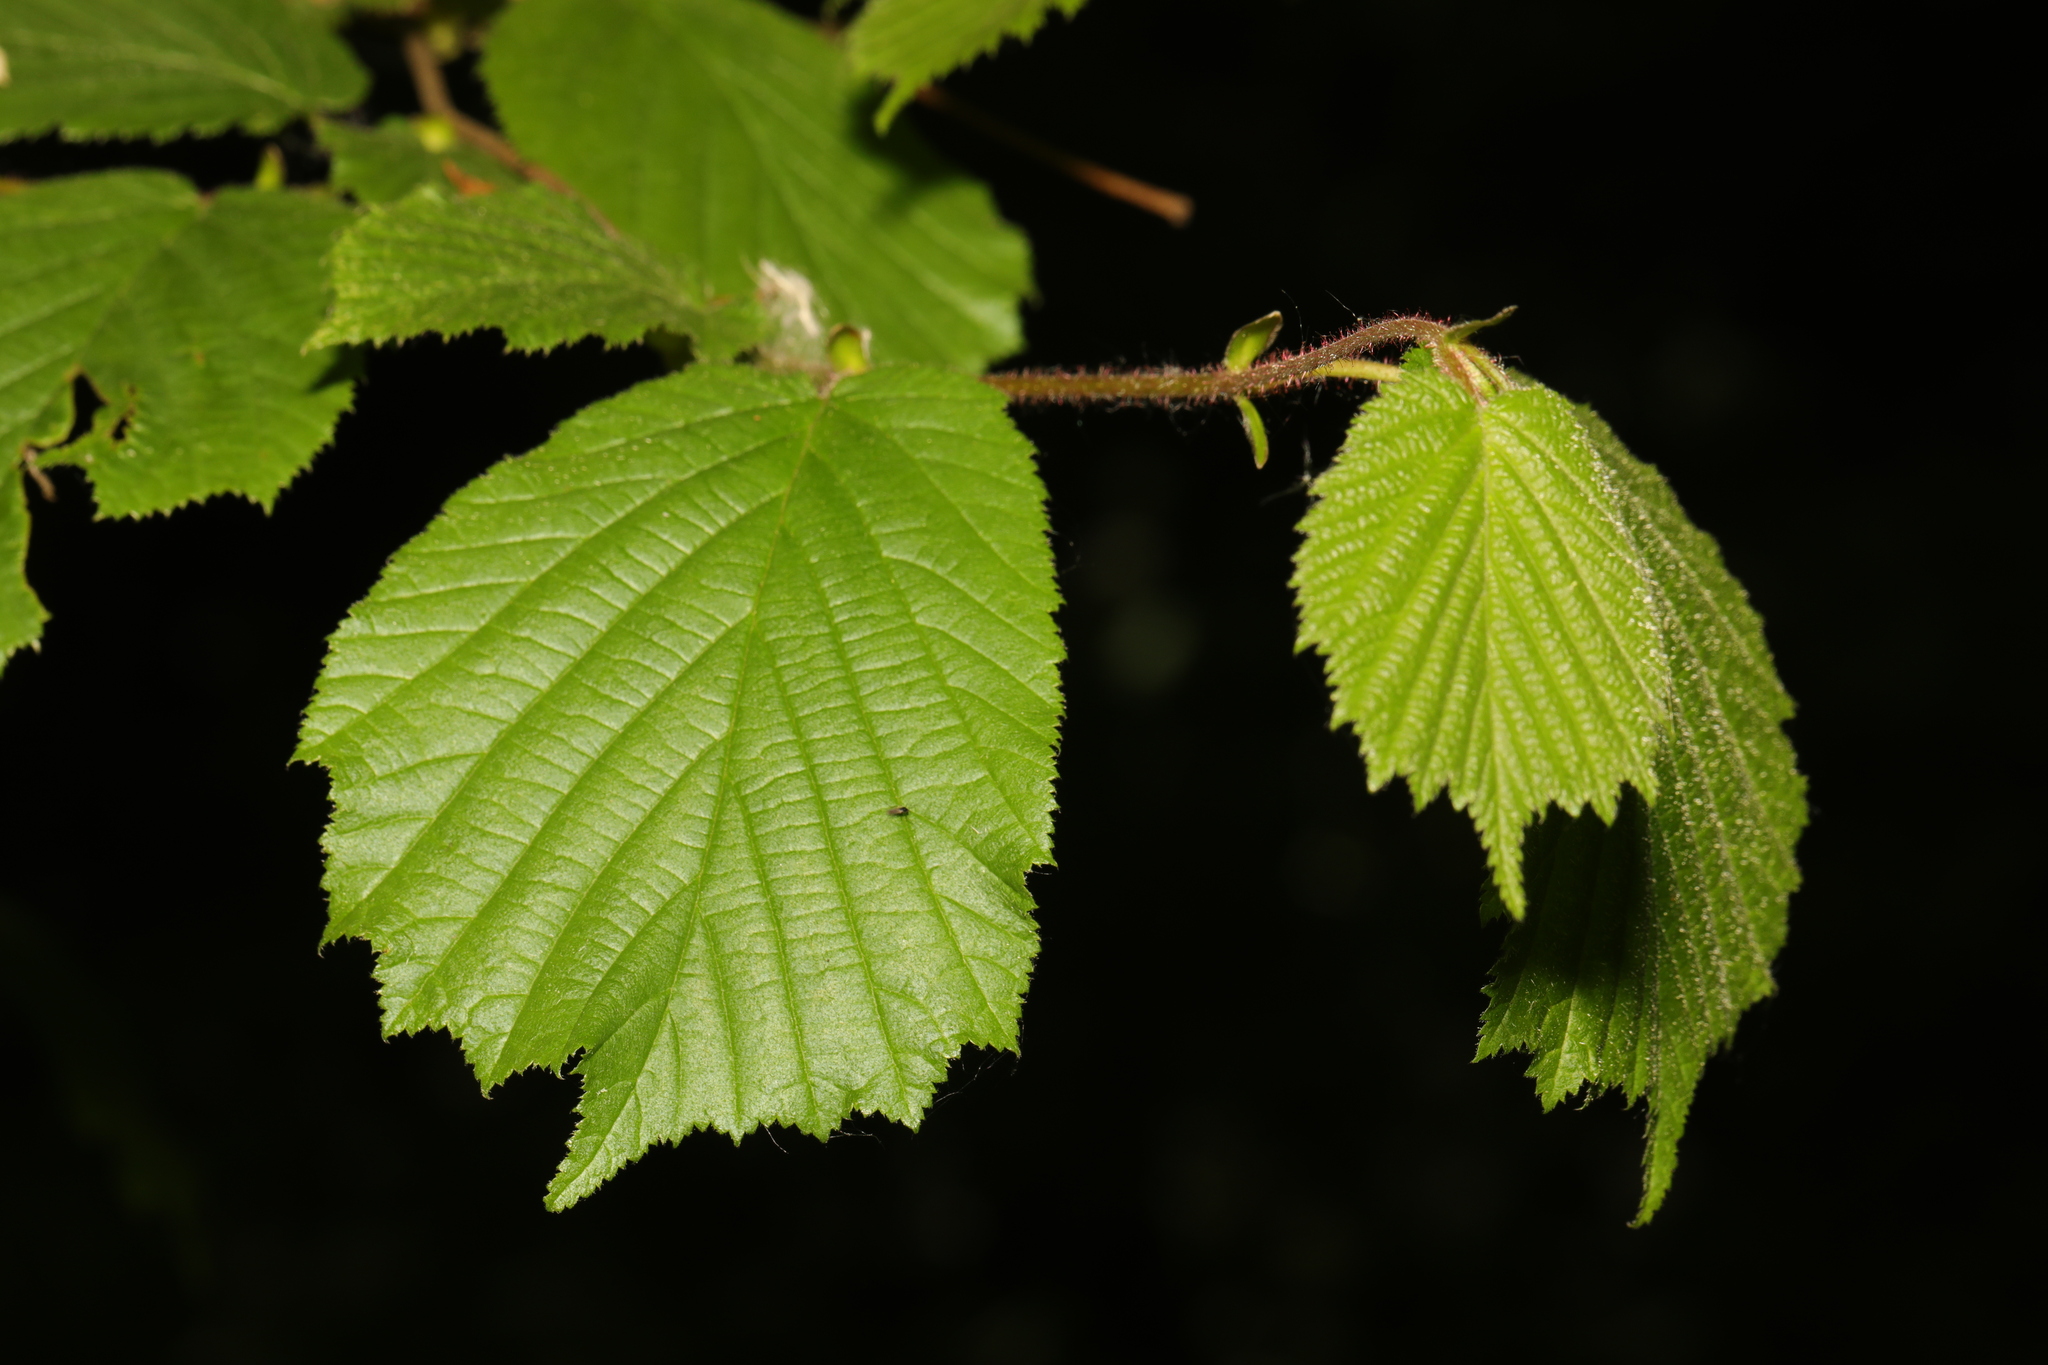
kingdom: Plantae
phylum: Tracheophyta
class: Magnoliopsida
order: Fagales
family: Betulaceae
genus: Corylus
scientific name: Corylus avellana
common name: European hazel
